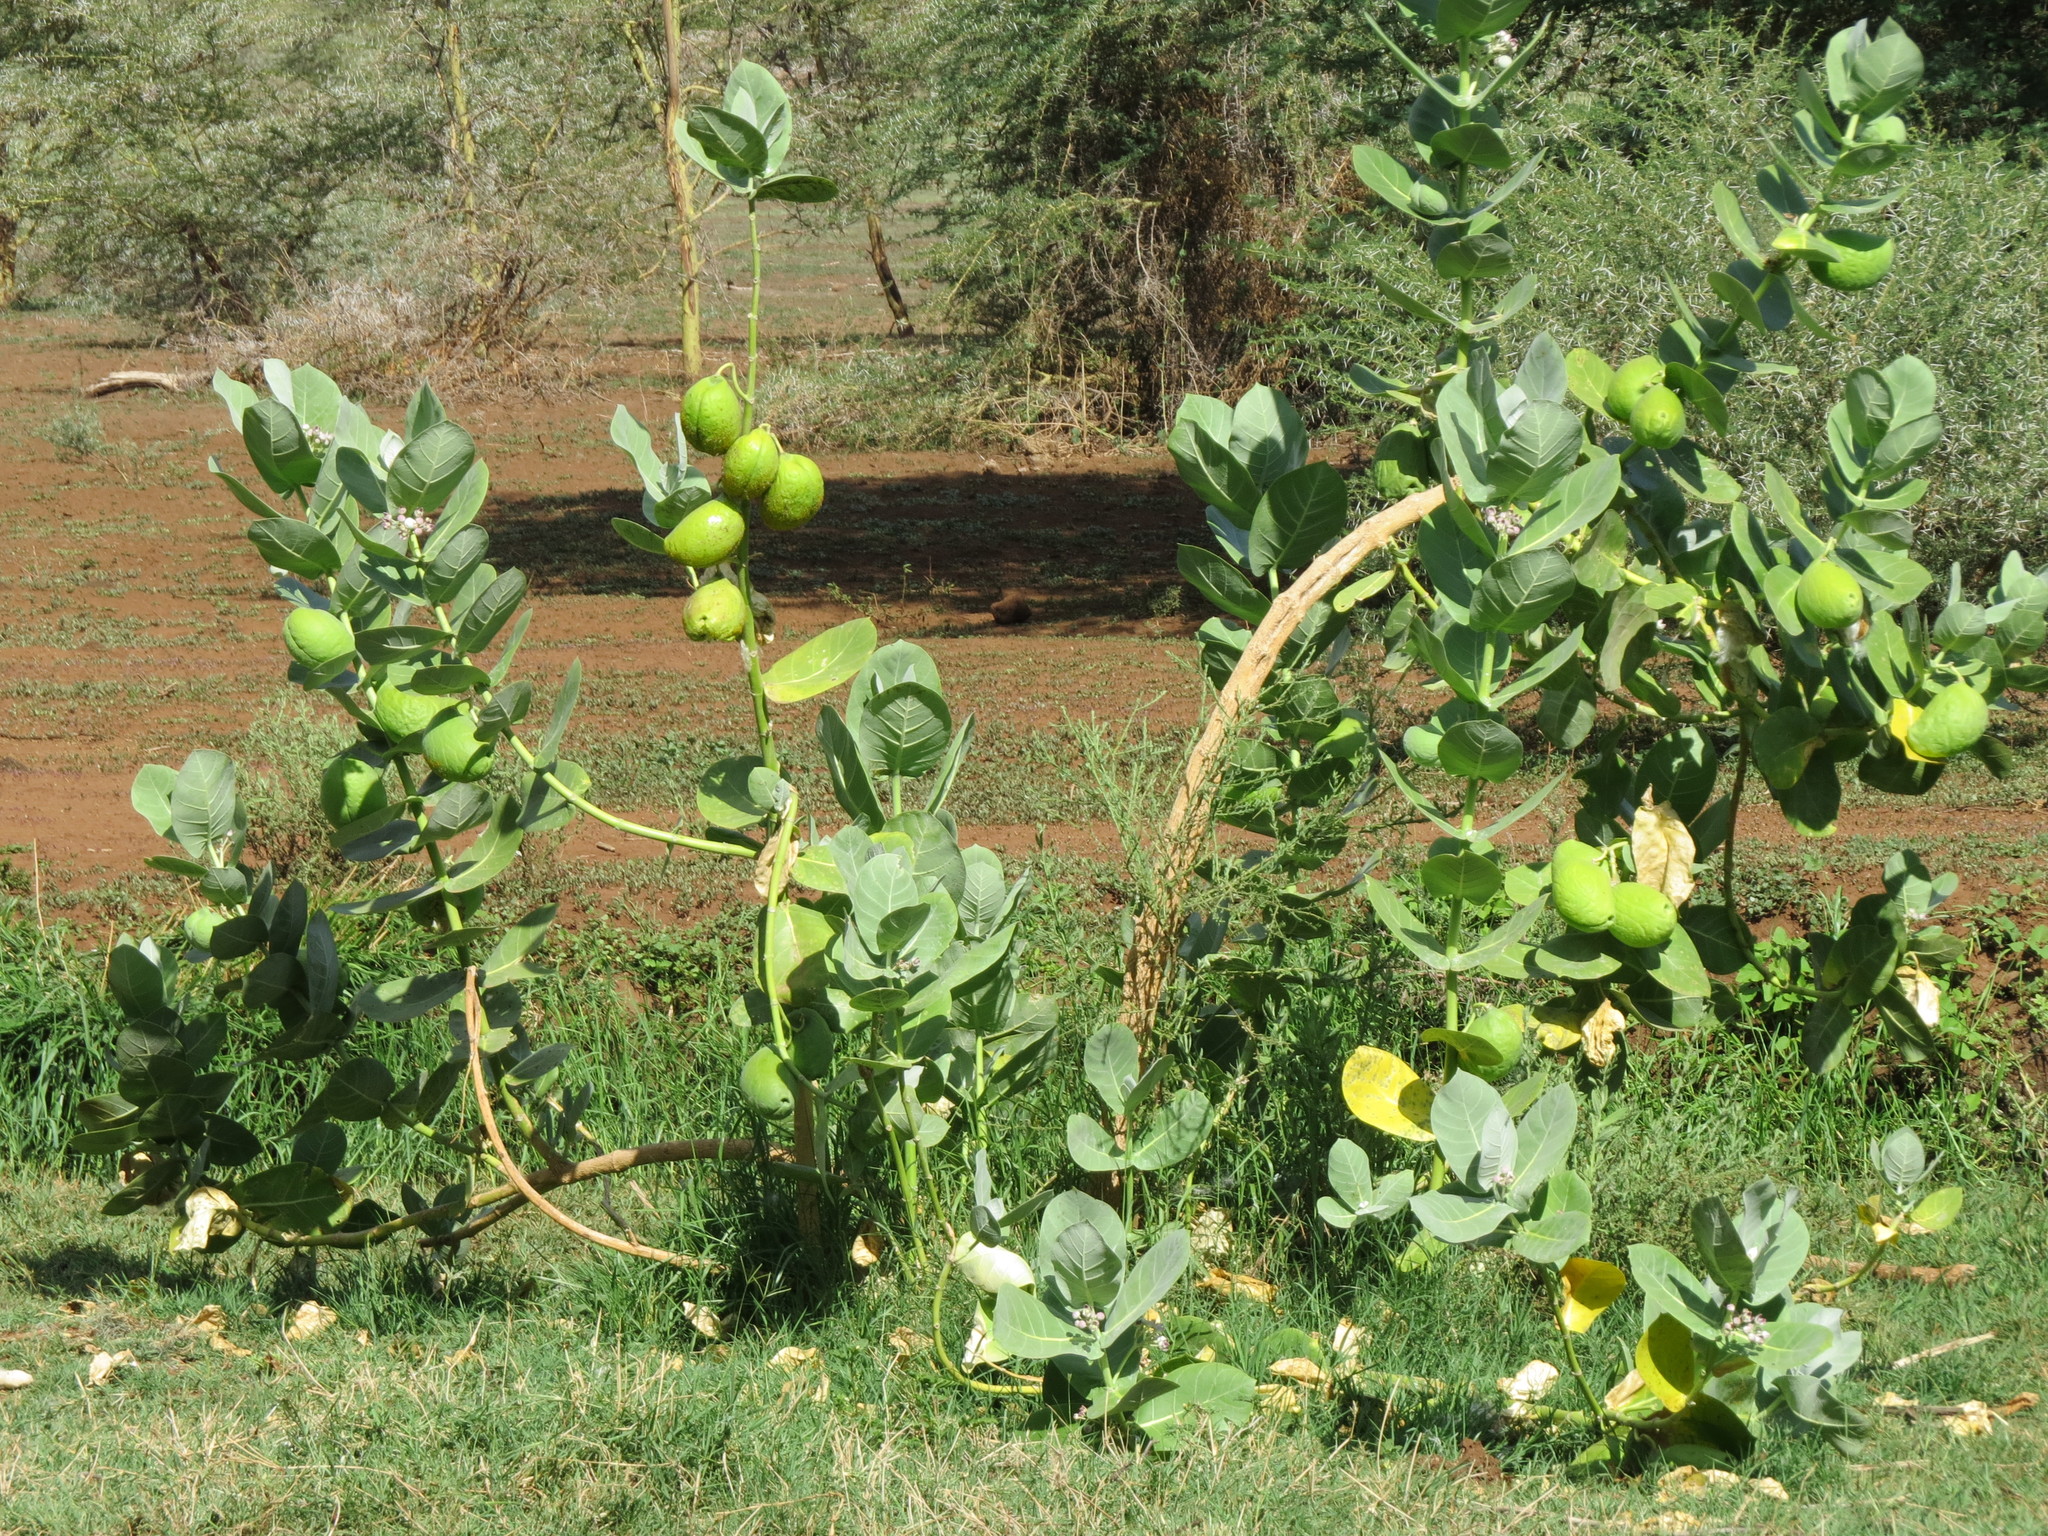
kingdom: Plantae
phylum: Tracheophyta
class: Magnoliopsida
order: Gentianales
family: Apocynaceae
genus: Calotropis
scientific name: Calotropis procera
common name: Roostertree
